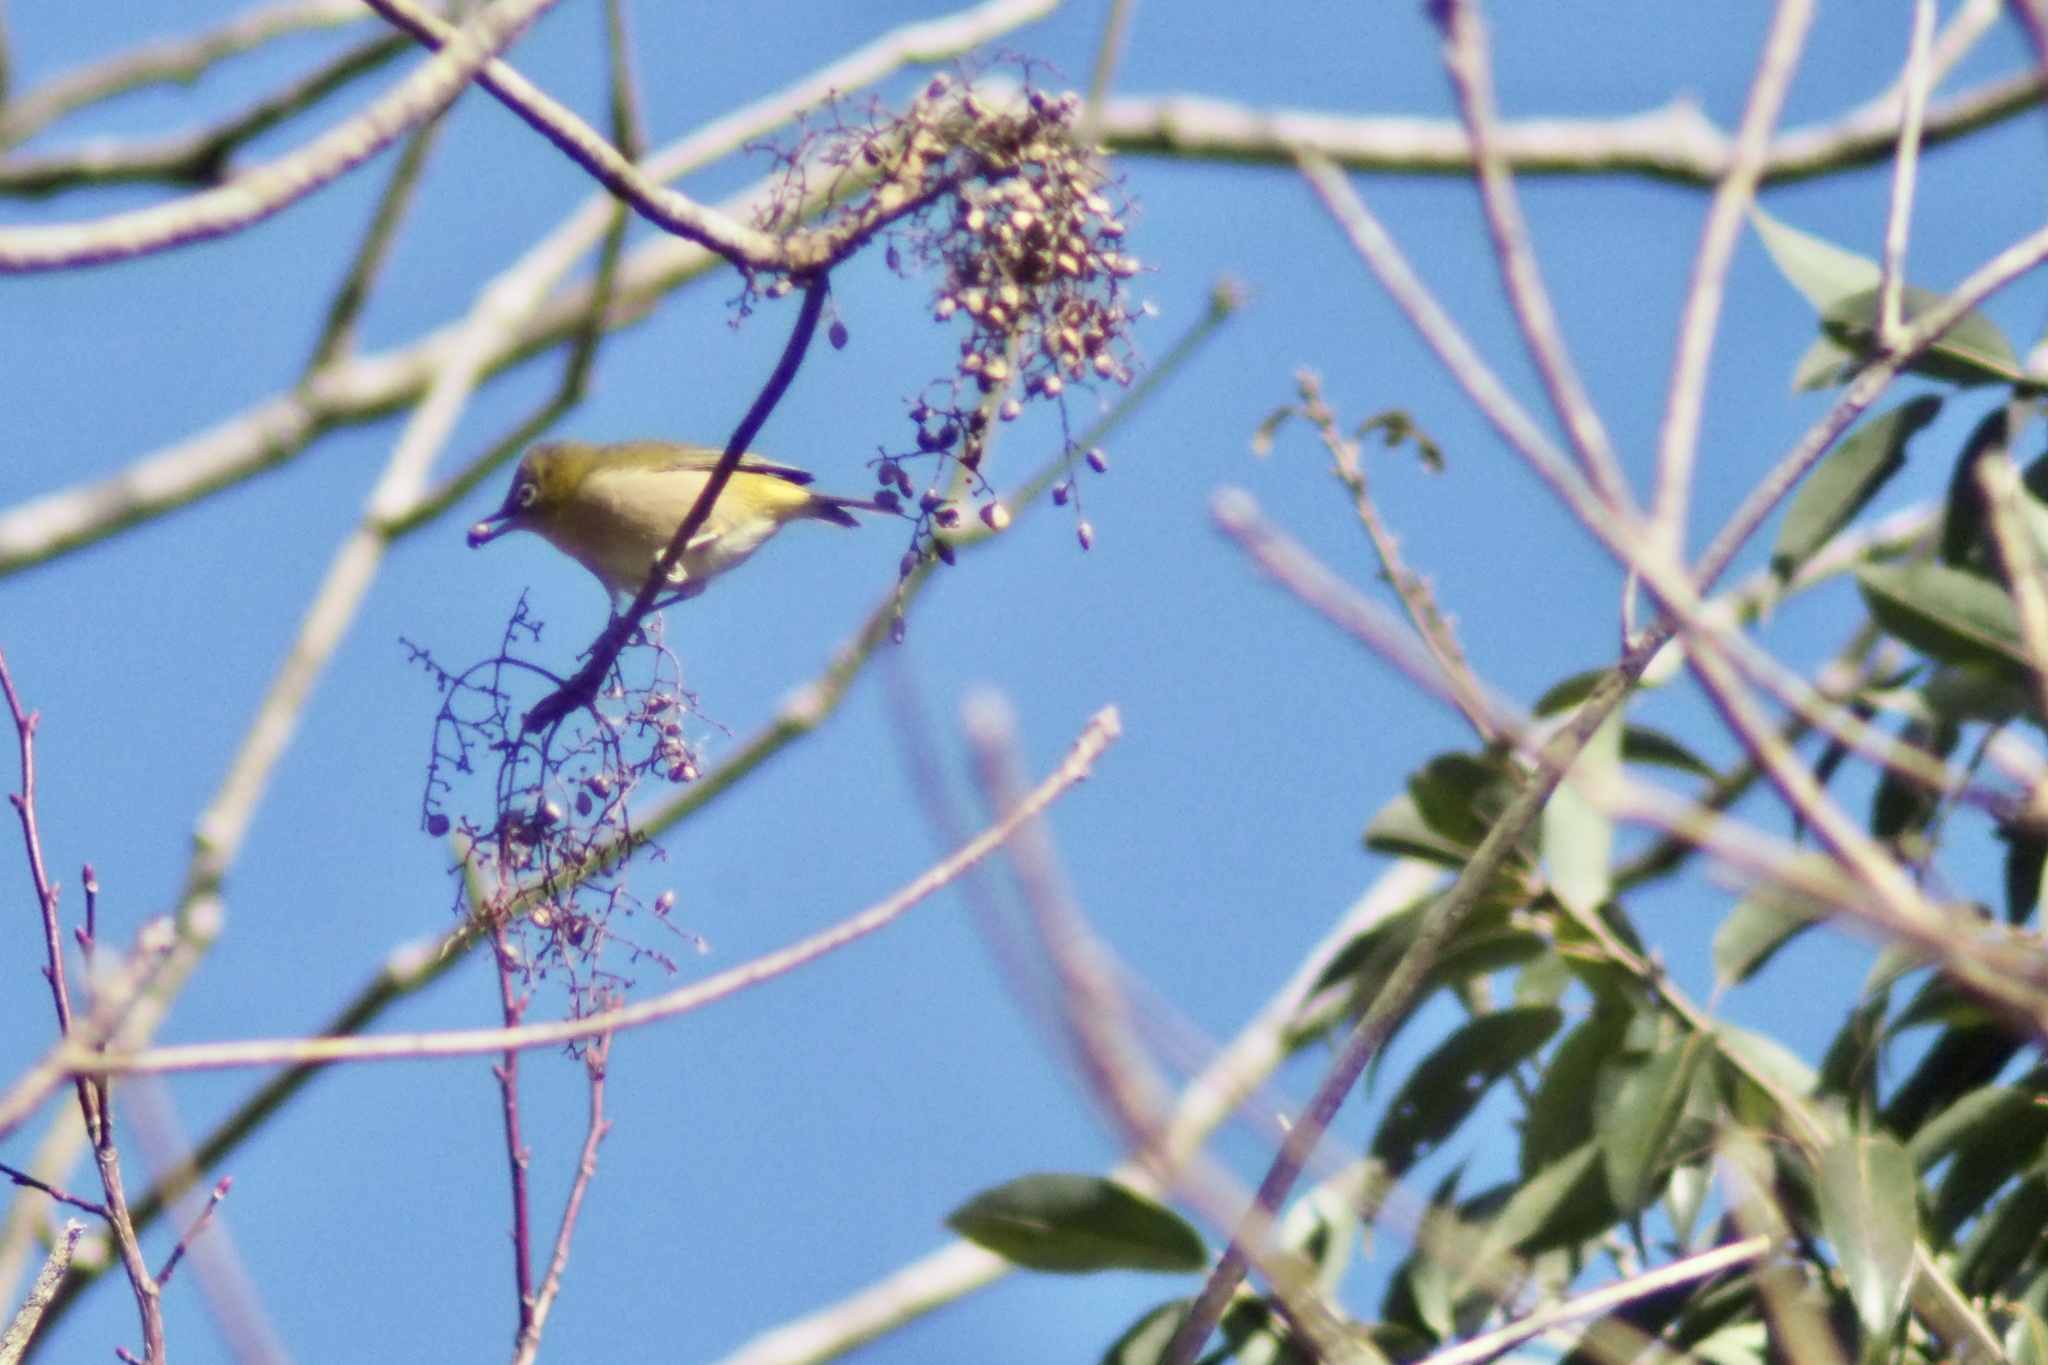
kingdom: Animalia
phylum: Chordata
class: Aves
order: Passeriformes
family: Zosteropidae
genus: Zosterops
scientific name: Zosterops japonicus
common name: Japanese white-eye
